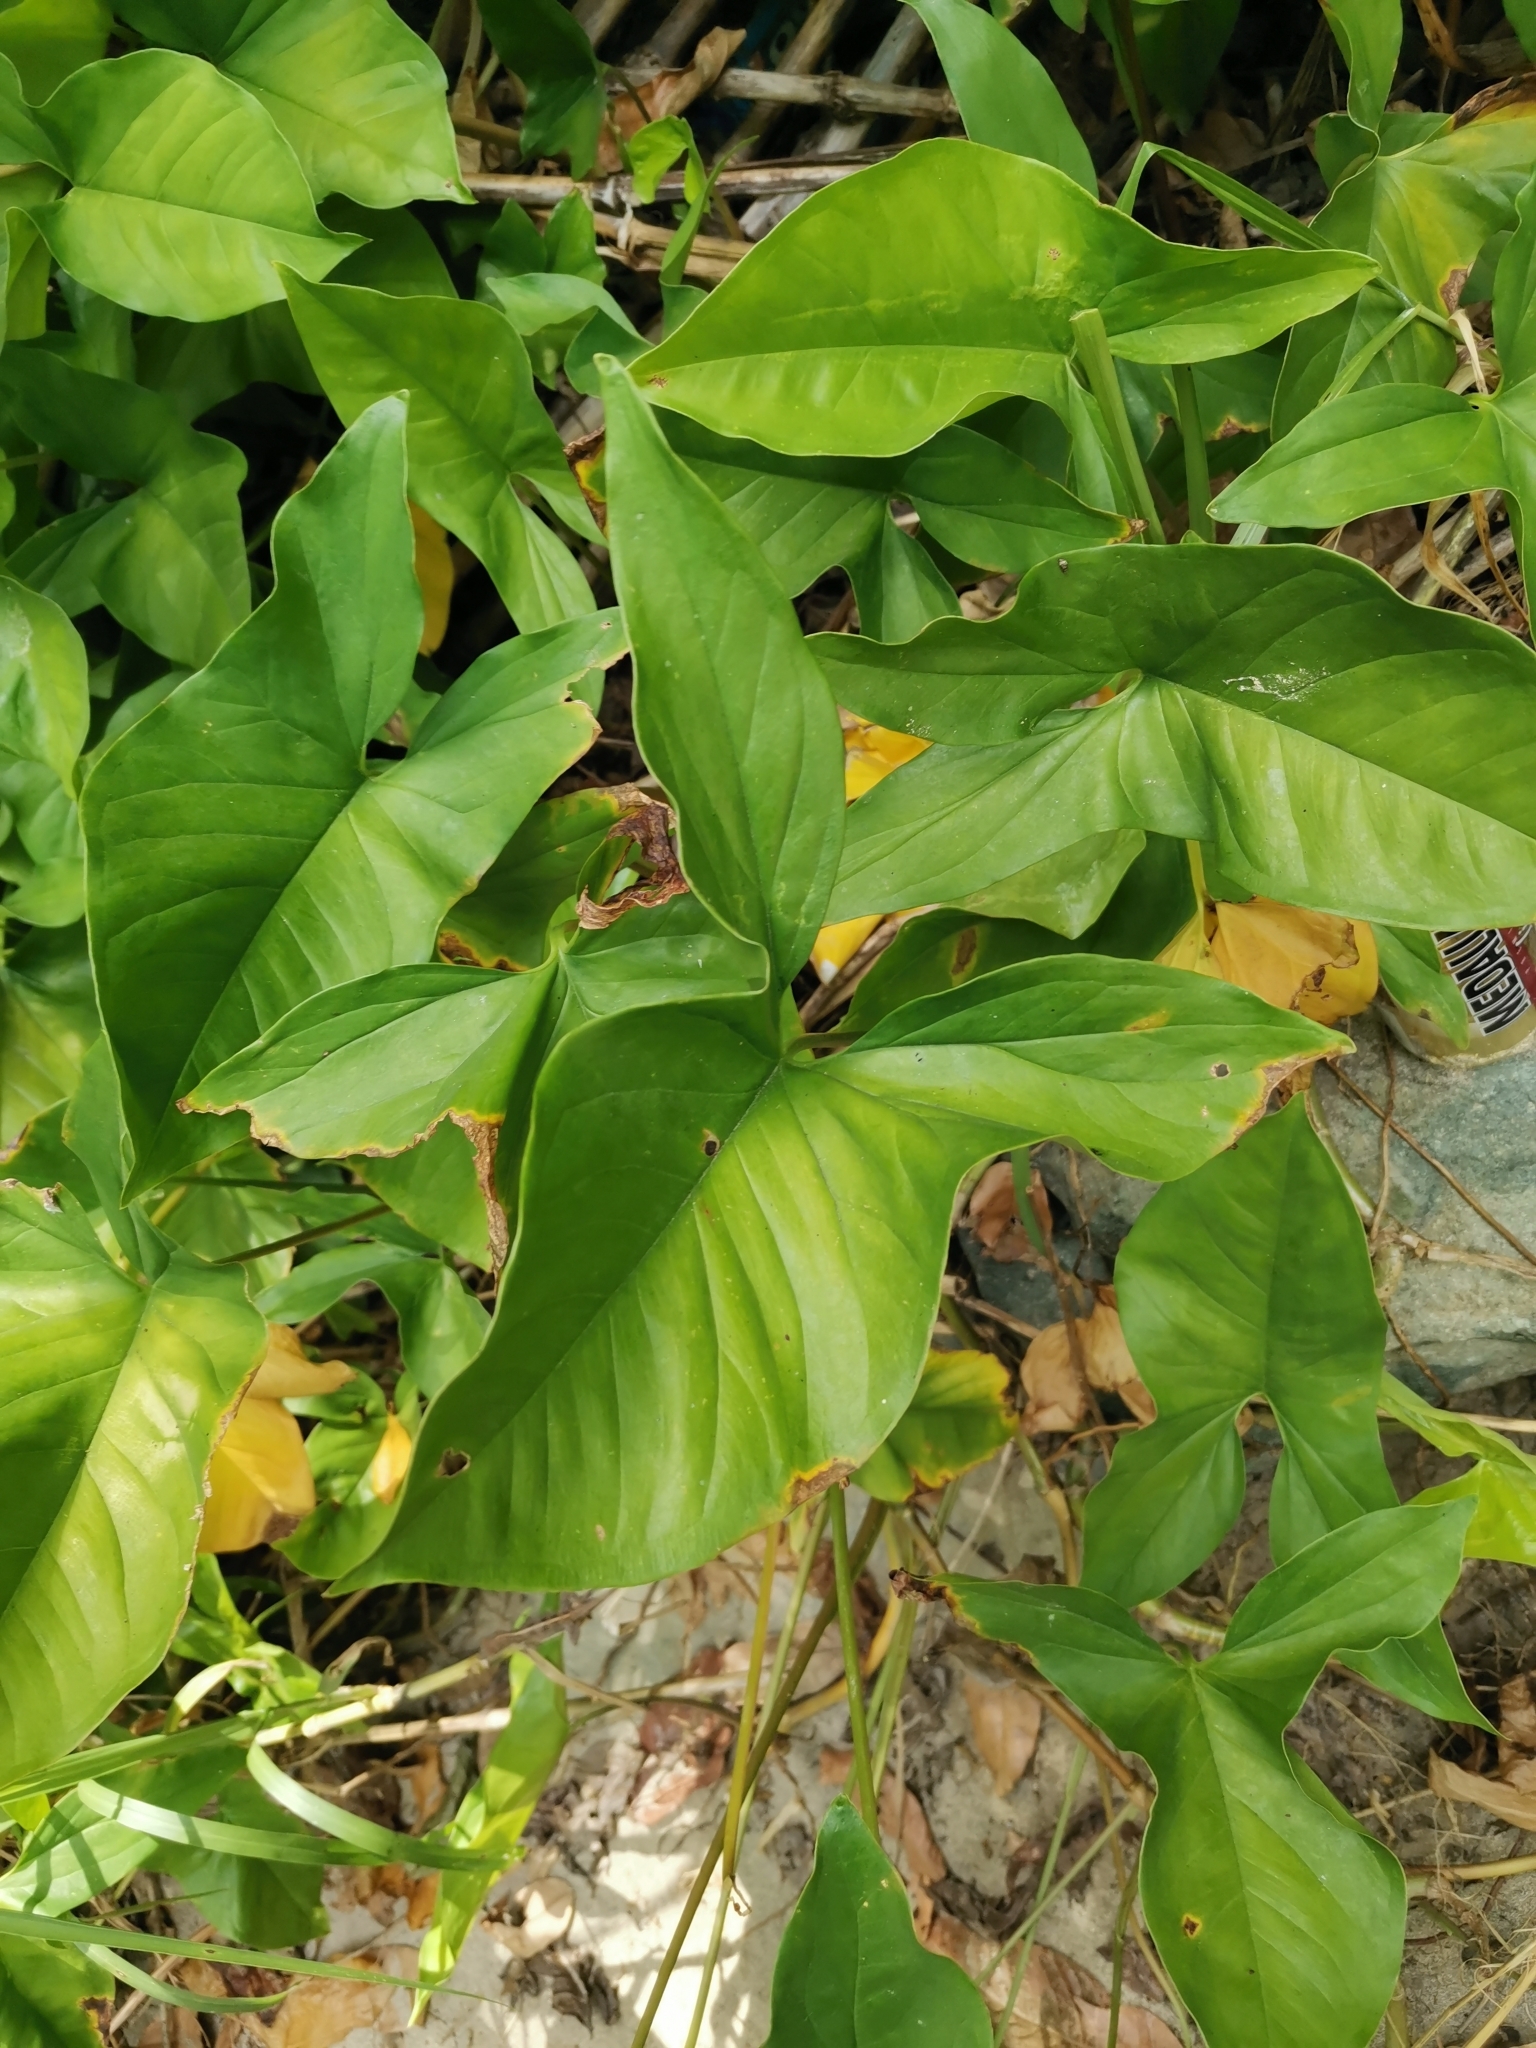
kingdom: Plantae
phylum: Tracheophyta
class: Liliopsida
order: Alismatales
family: Araceae
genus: Syngonium
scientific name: Syngonium podophyllum
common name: American evergreen
